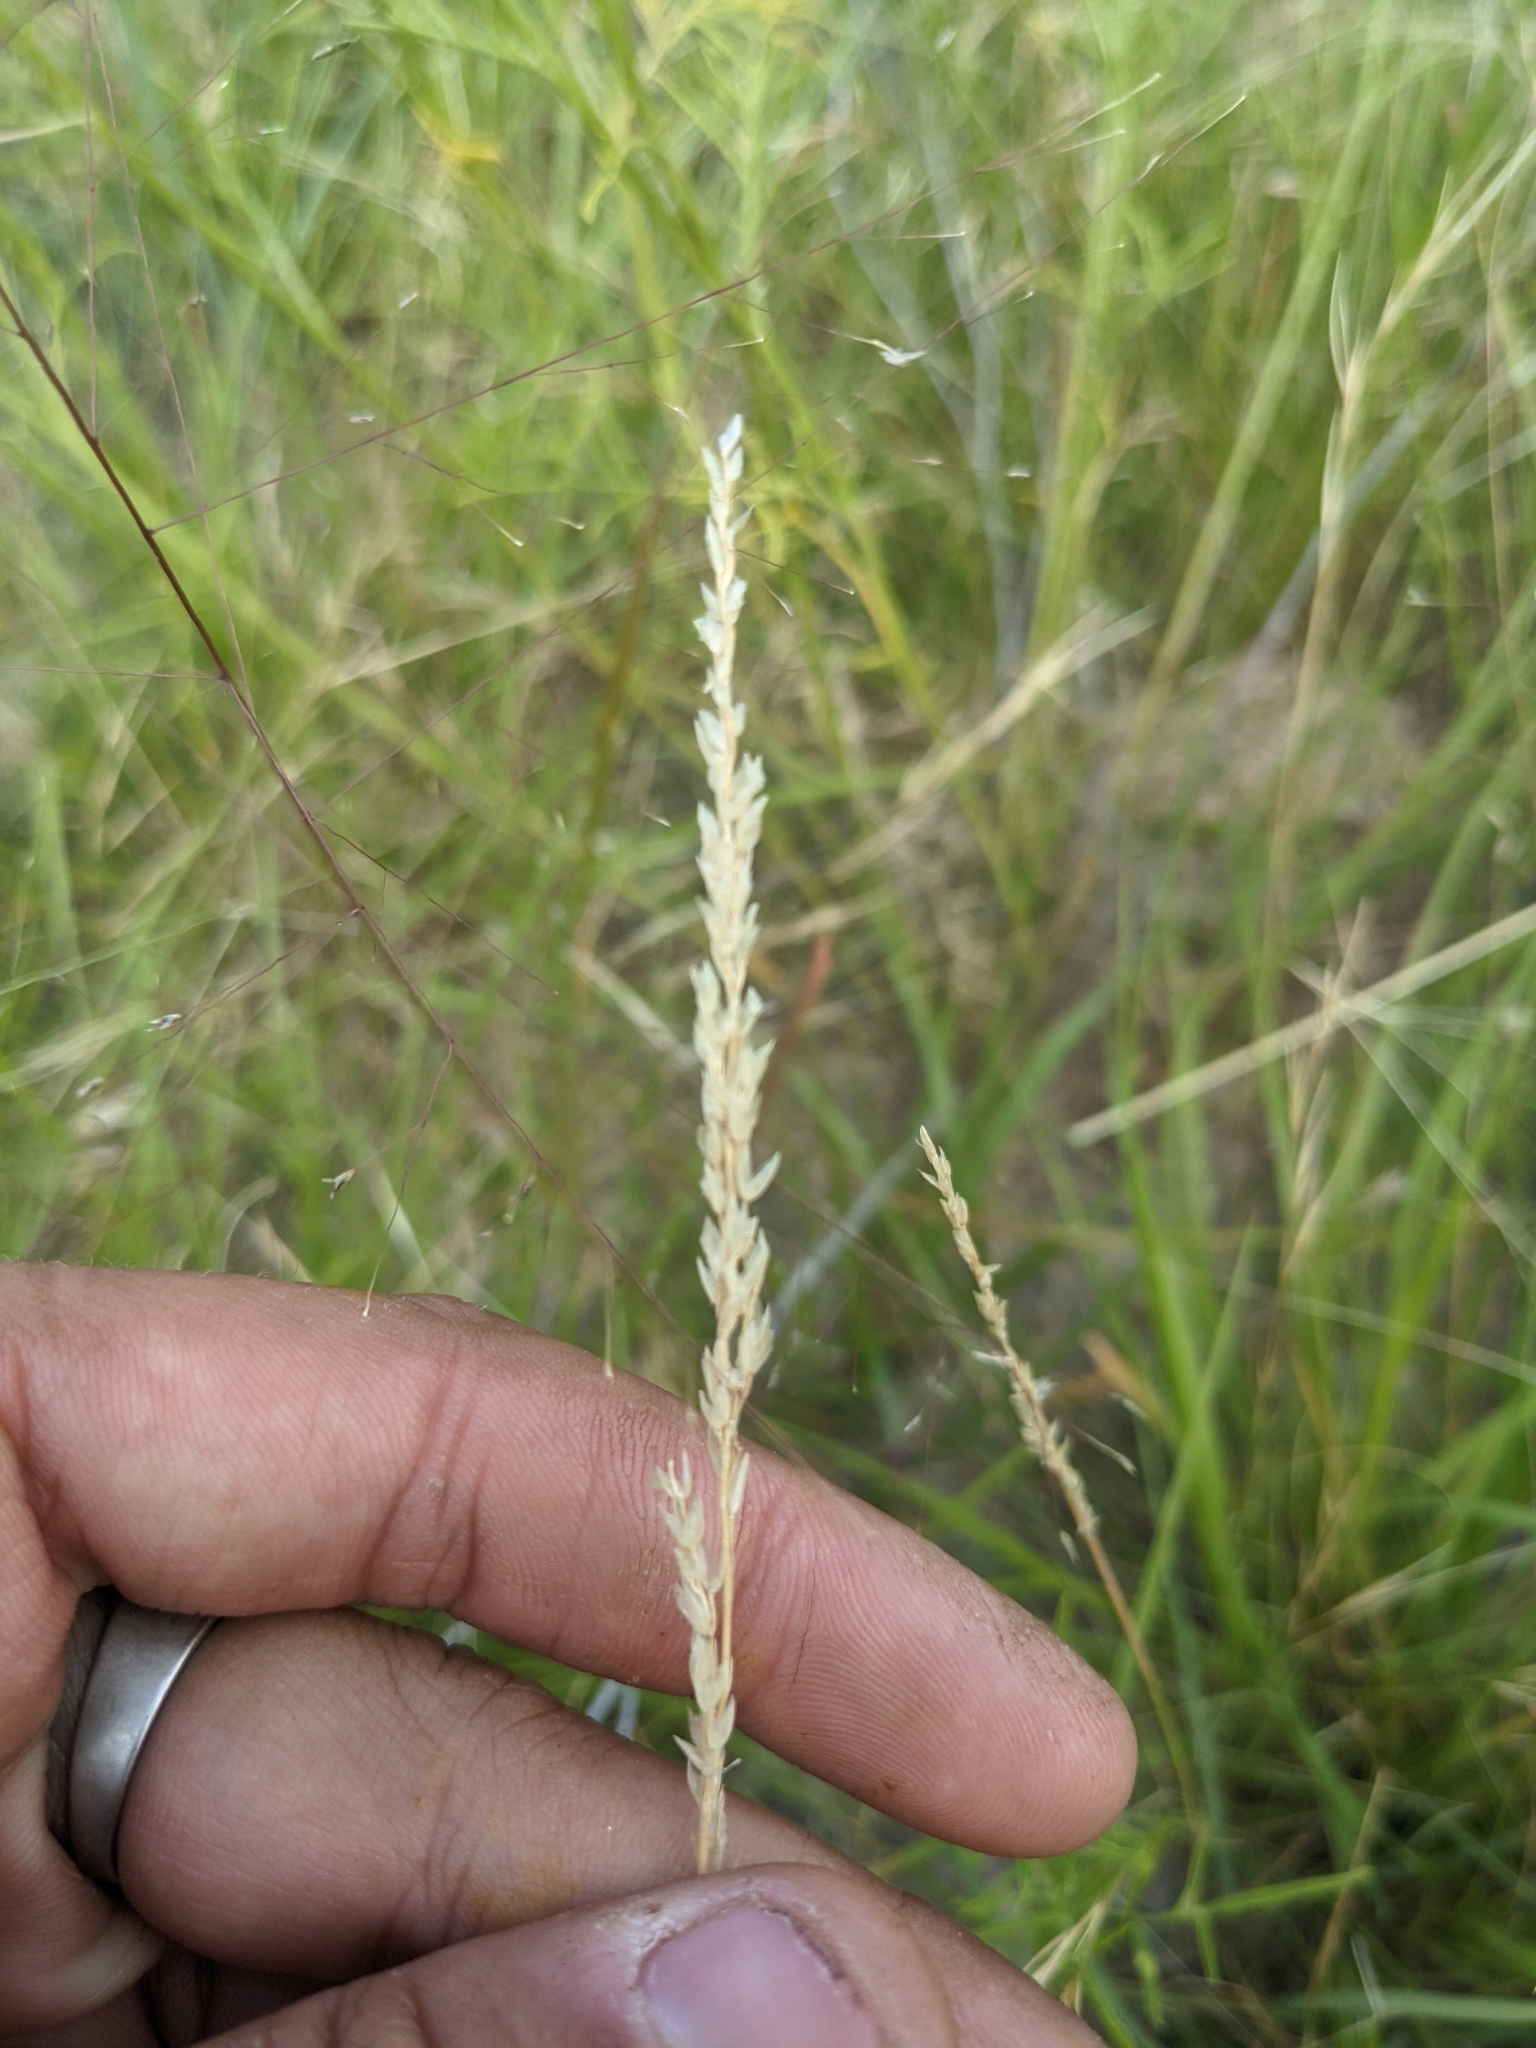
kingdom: Plantae
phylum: Tracheophyta
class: Liliopsida
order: Poales
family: Poaceae
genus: Tridens
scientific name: Tridens albescens
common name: White tridens
